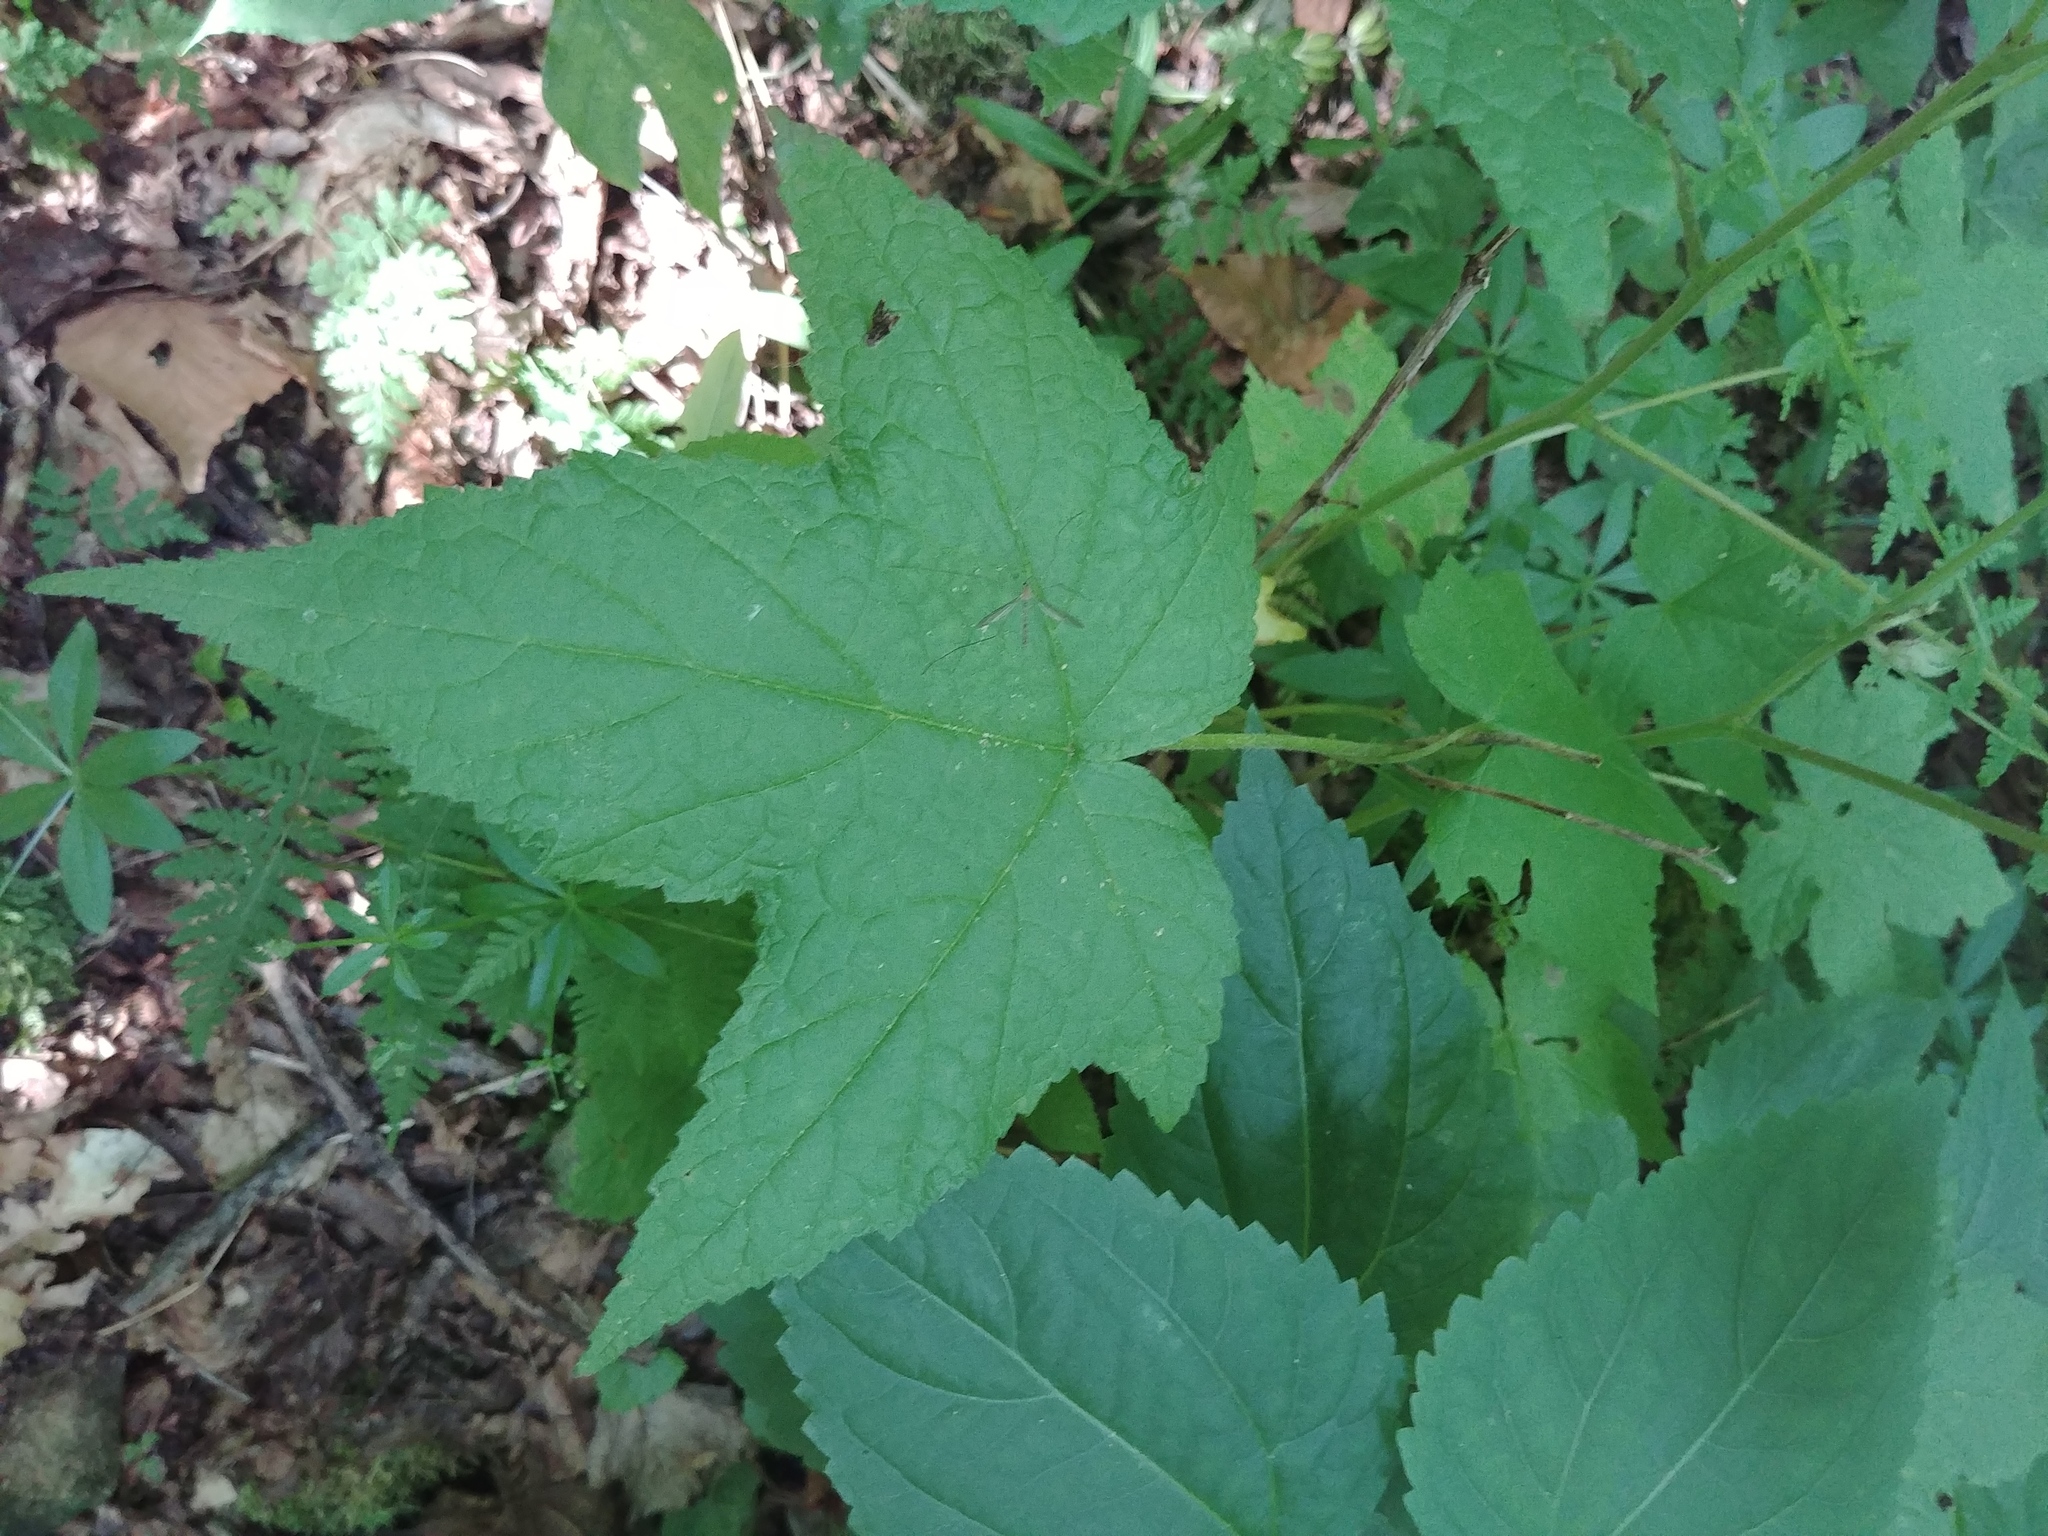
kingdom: Plantae
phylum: Tracheophyta
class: Magnoliopsida
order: Rosales
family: Rosaceae
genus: Rubus
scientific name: Rubus odoratus
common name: Purple-flowered raspberry
